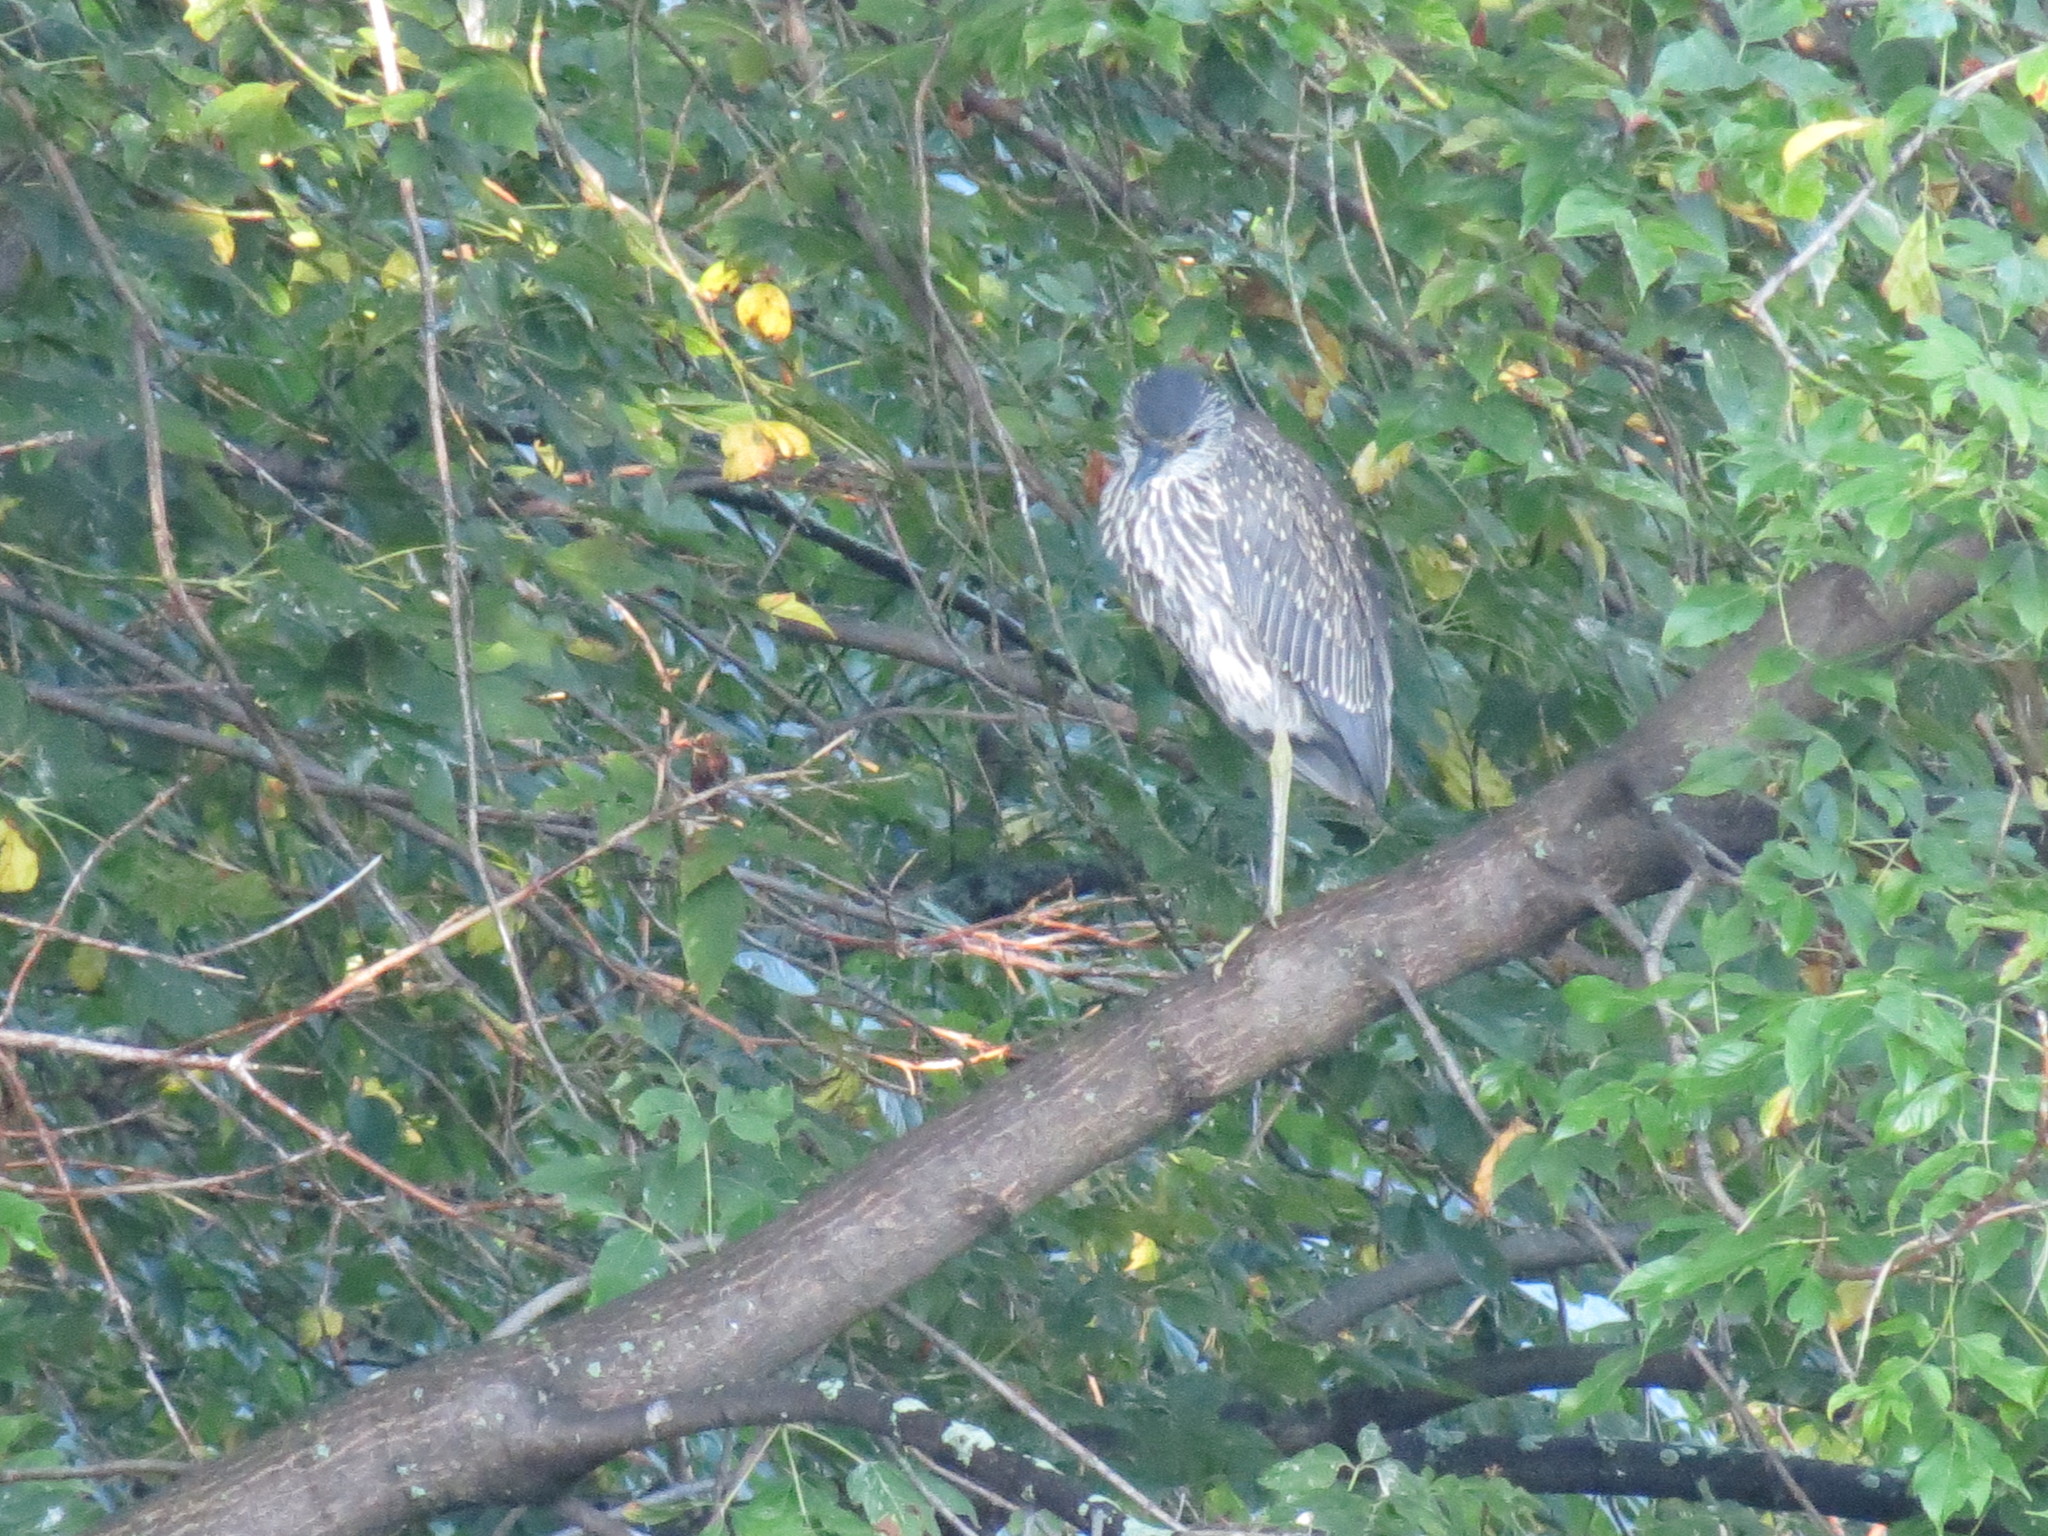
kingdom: Animalia
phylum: Chordata
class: Aves
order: Pelecaniformes
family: Ardeidae
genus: Nyctanassa
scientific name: Nyctanassa violacea
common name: Yellow-crowned night heron
